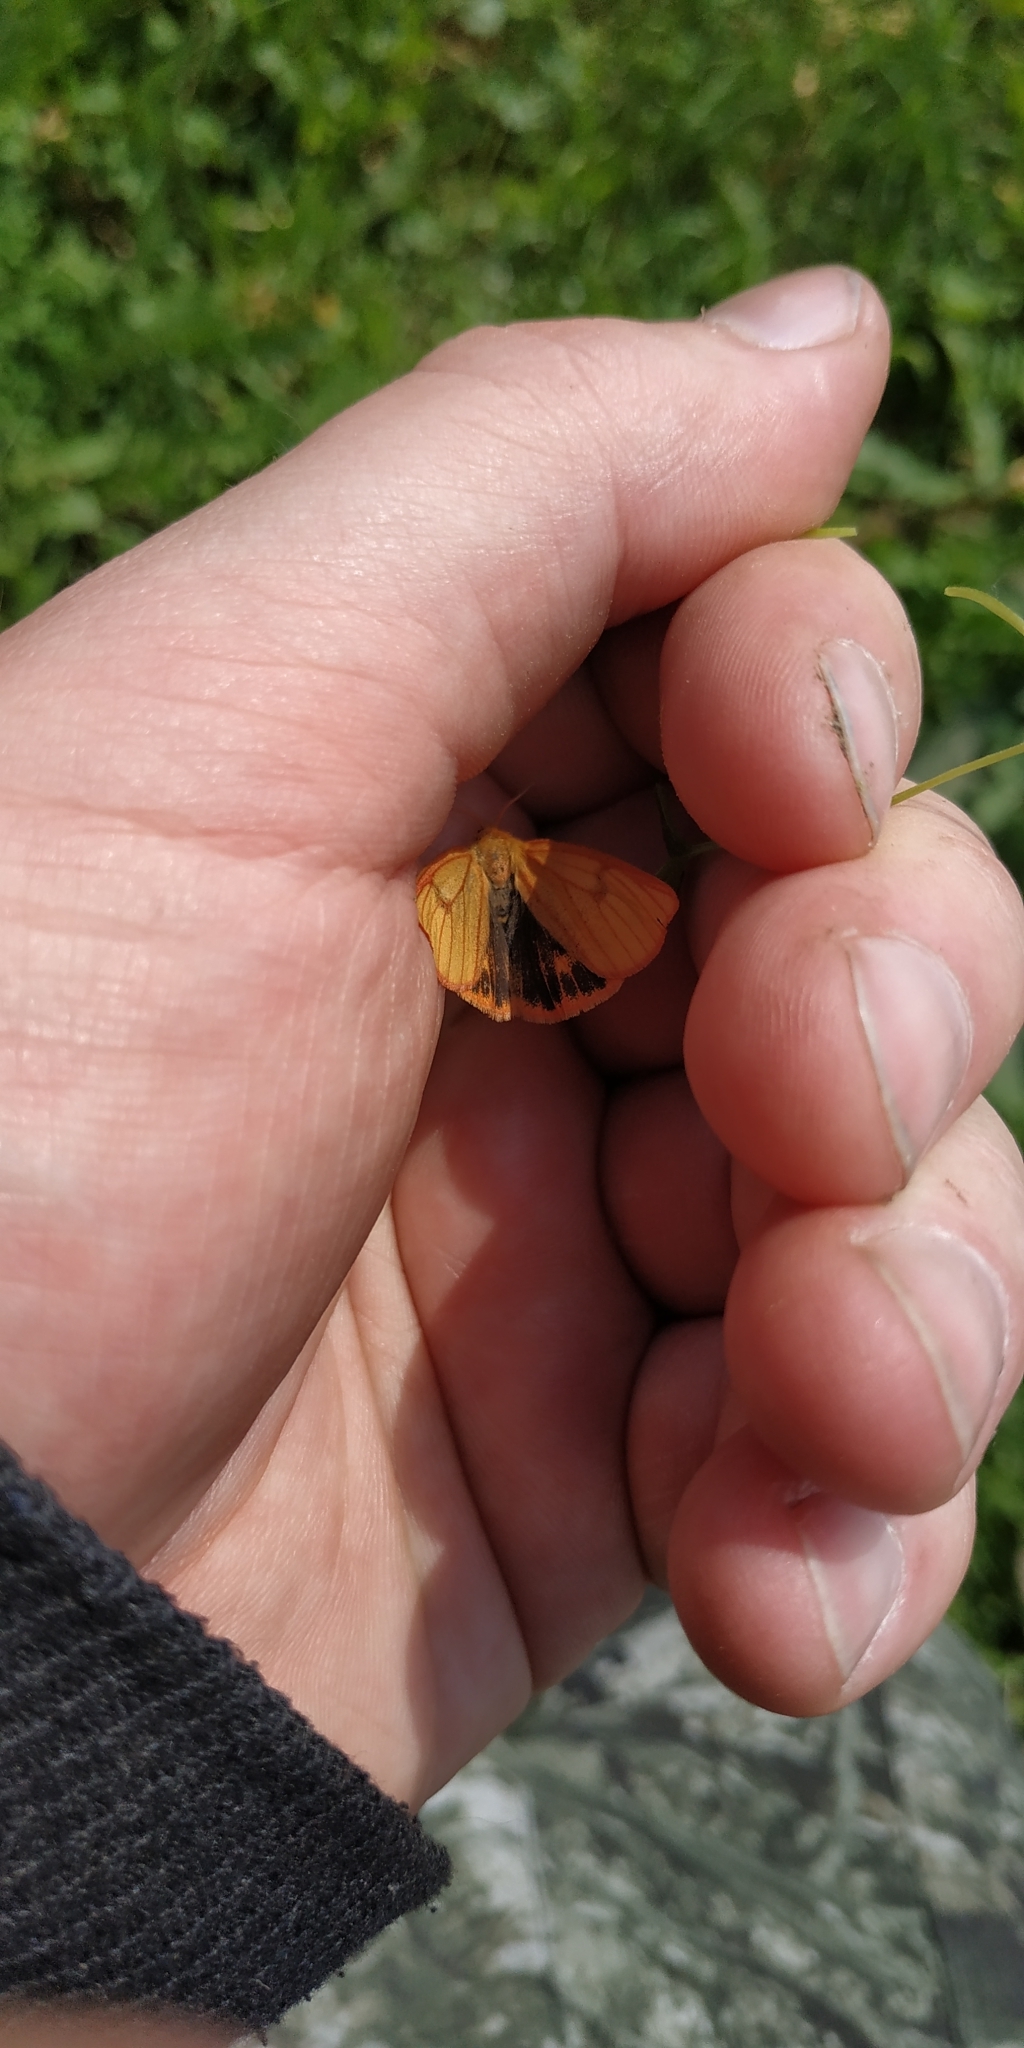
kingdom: Animalia
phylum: Arthropoda
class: Insecta
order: Lepidoptera
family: Erebidae
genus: Diacrisia
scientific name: Diacrisia sannio
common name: Clouded buff
